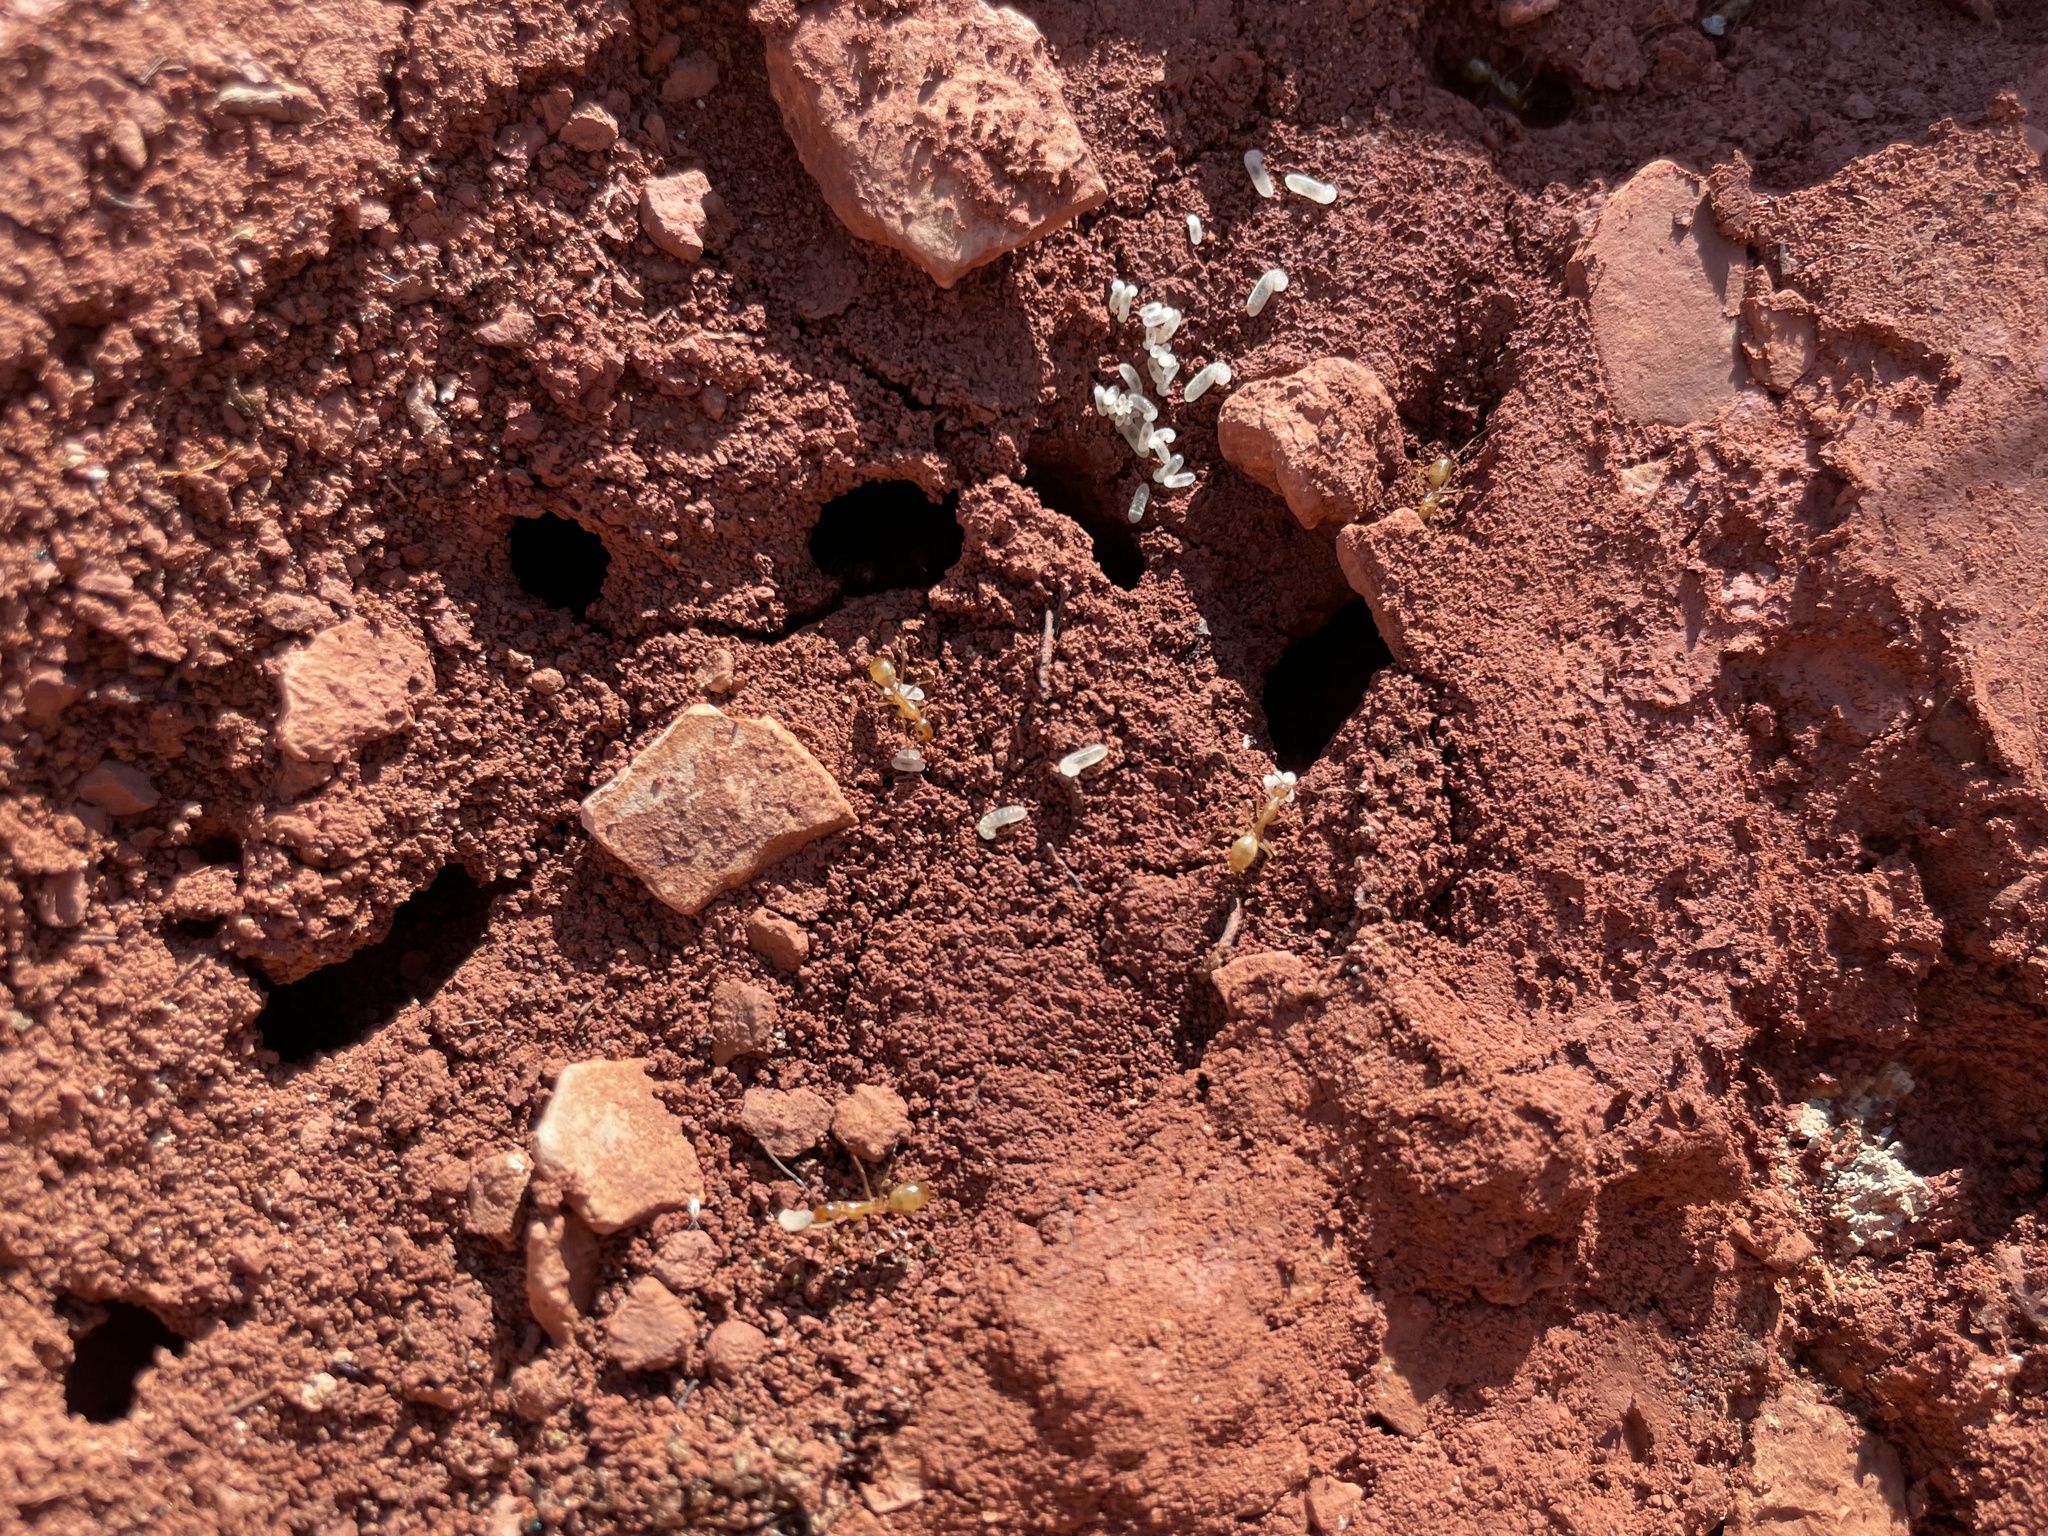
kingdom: Animalia
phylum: Arthropoda
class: Insecta
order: Hymenoptera
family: Formicidae
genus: Camponotus
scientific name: Camponotus festinatus
